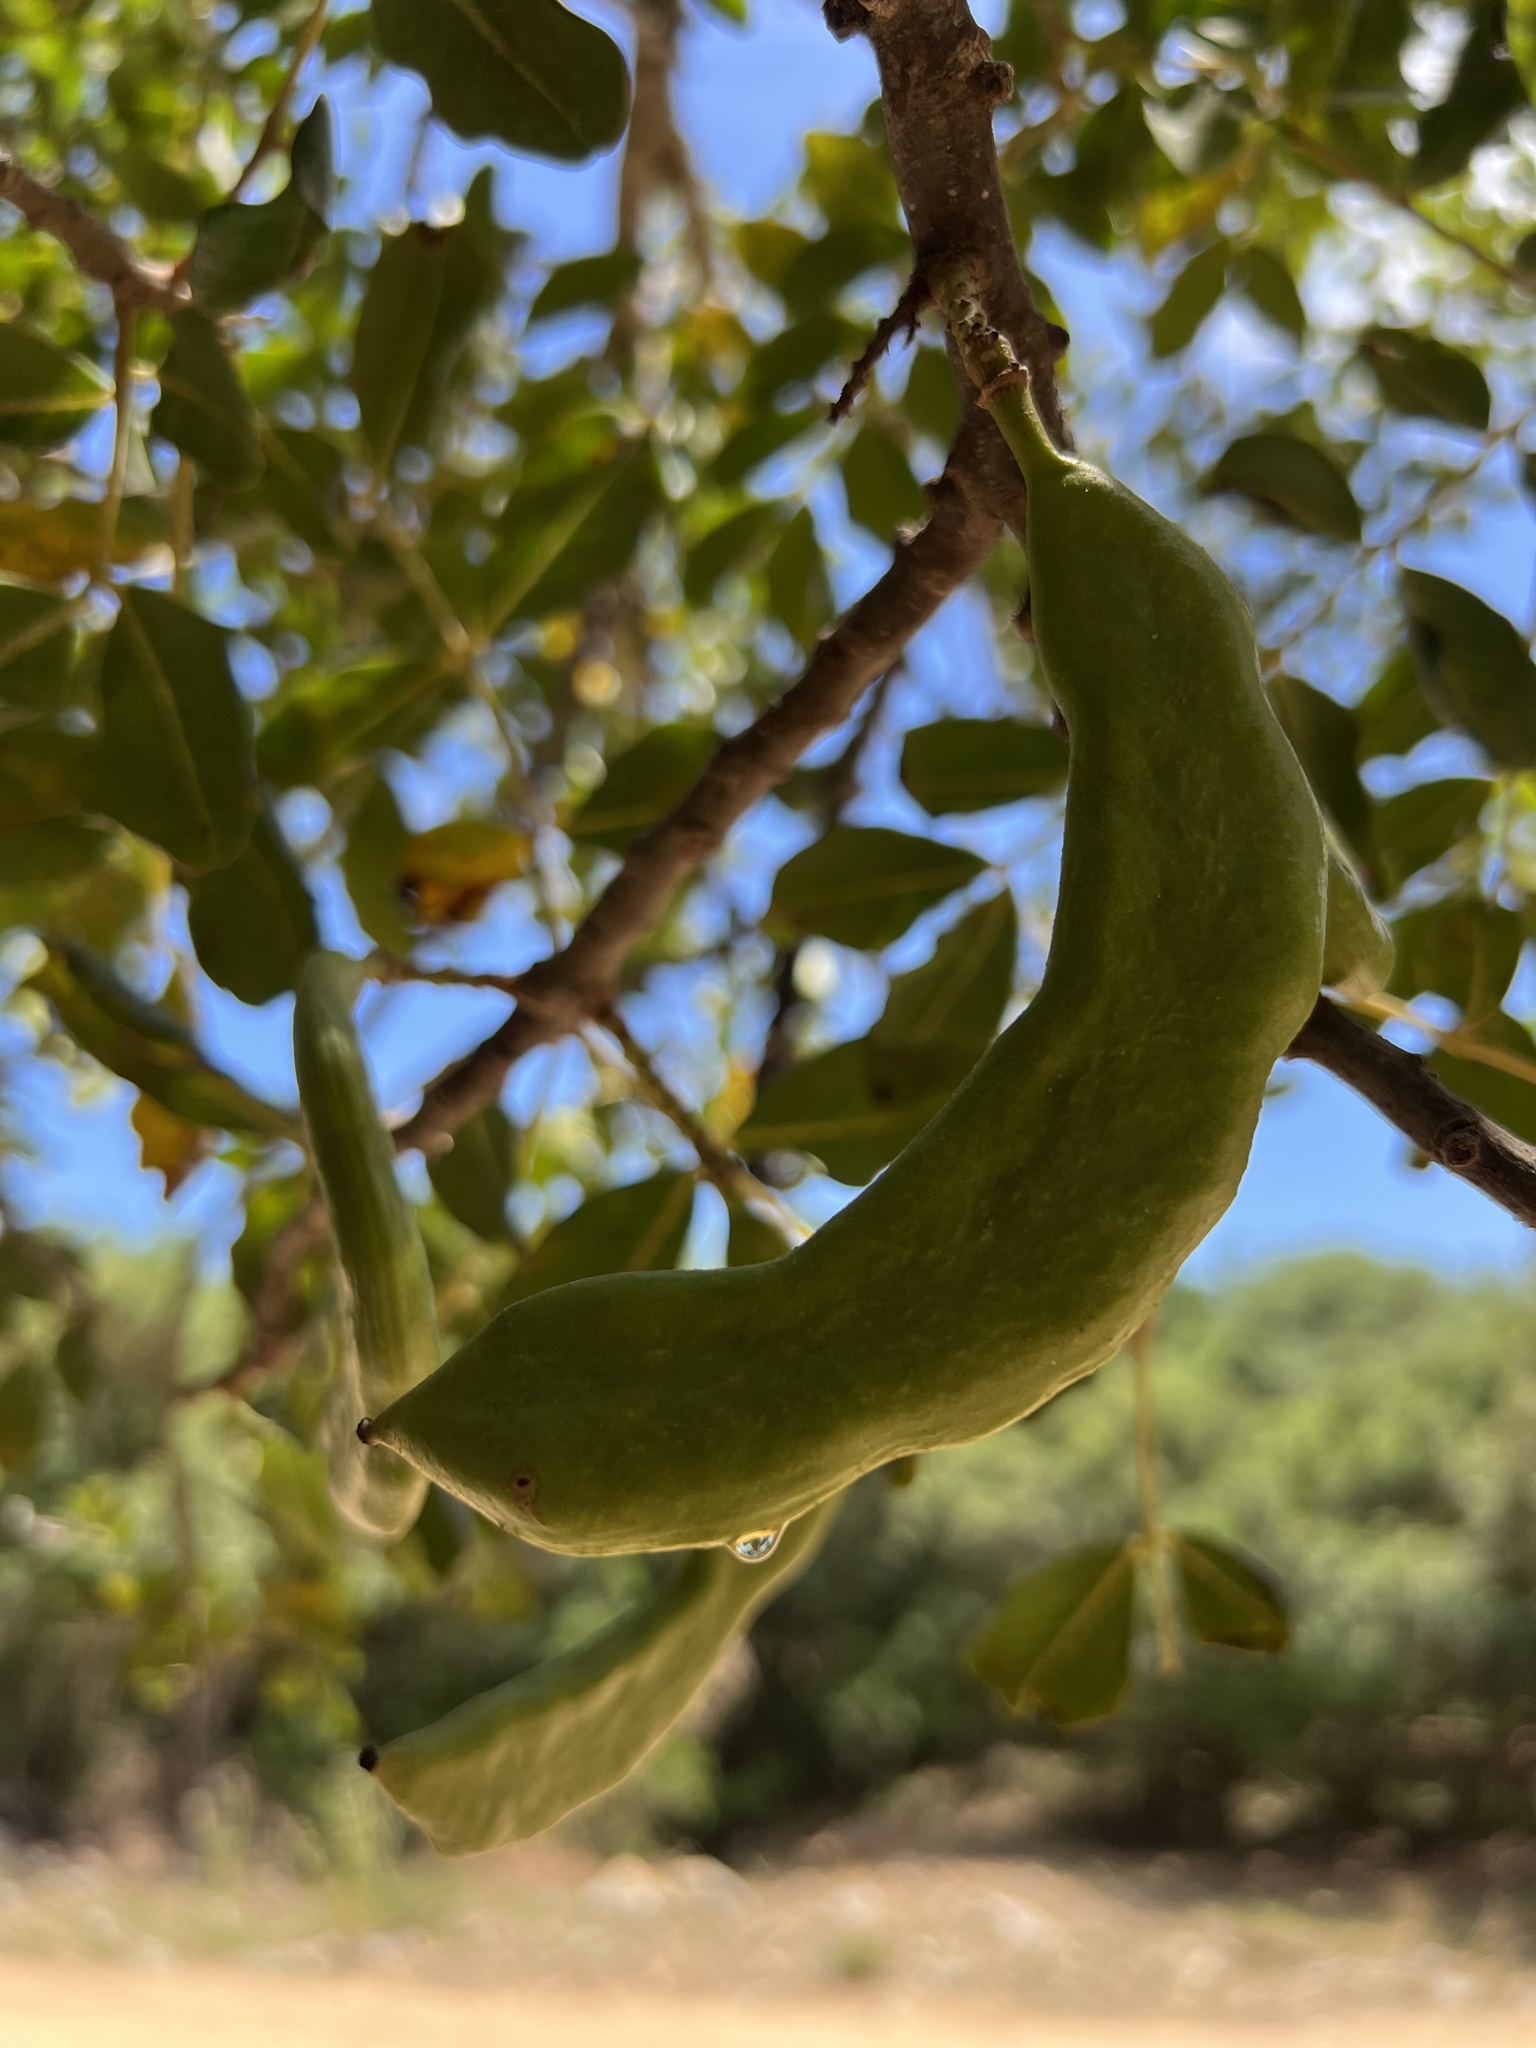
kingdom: Plantae
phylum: Tracheophyta
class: Magnoliopsida
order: Fabales
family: Fabaceae
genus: Ceratonia
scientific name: Ceratonia siliqua
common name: Carob
